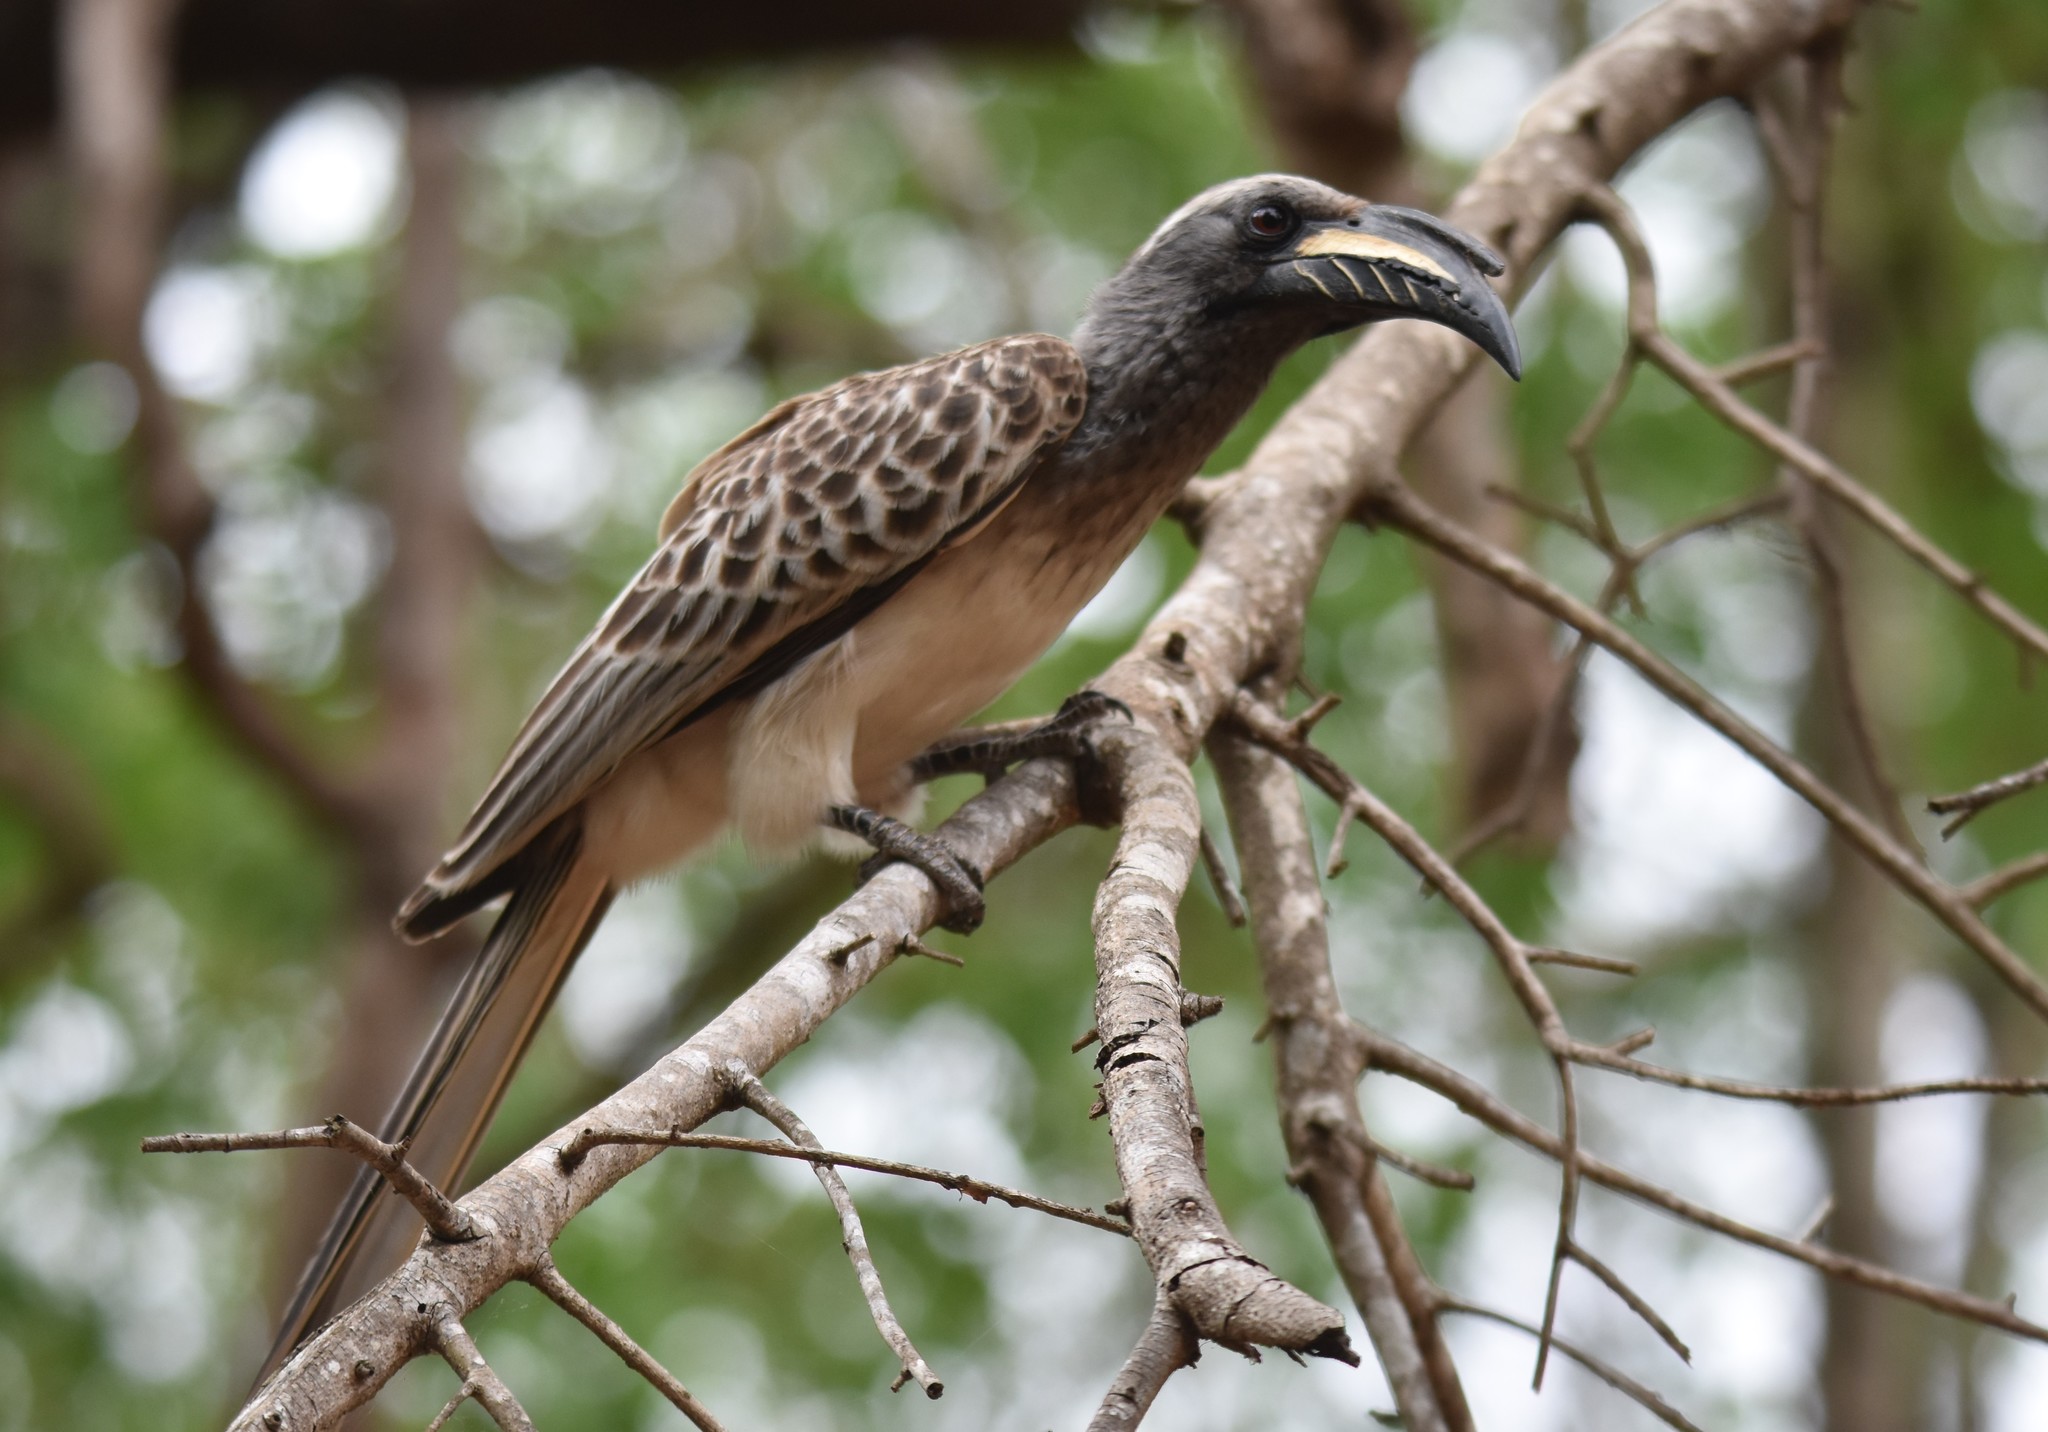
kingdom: Animalia
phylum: Chordata
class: Aves
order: Bucerotiformes
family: Bucerotidae
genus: Lophoceros
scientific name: Lophoceros nasutus
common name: African grey hornbill
